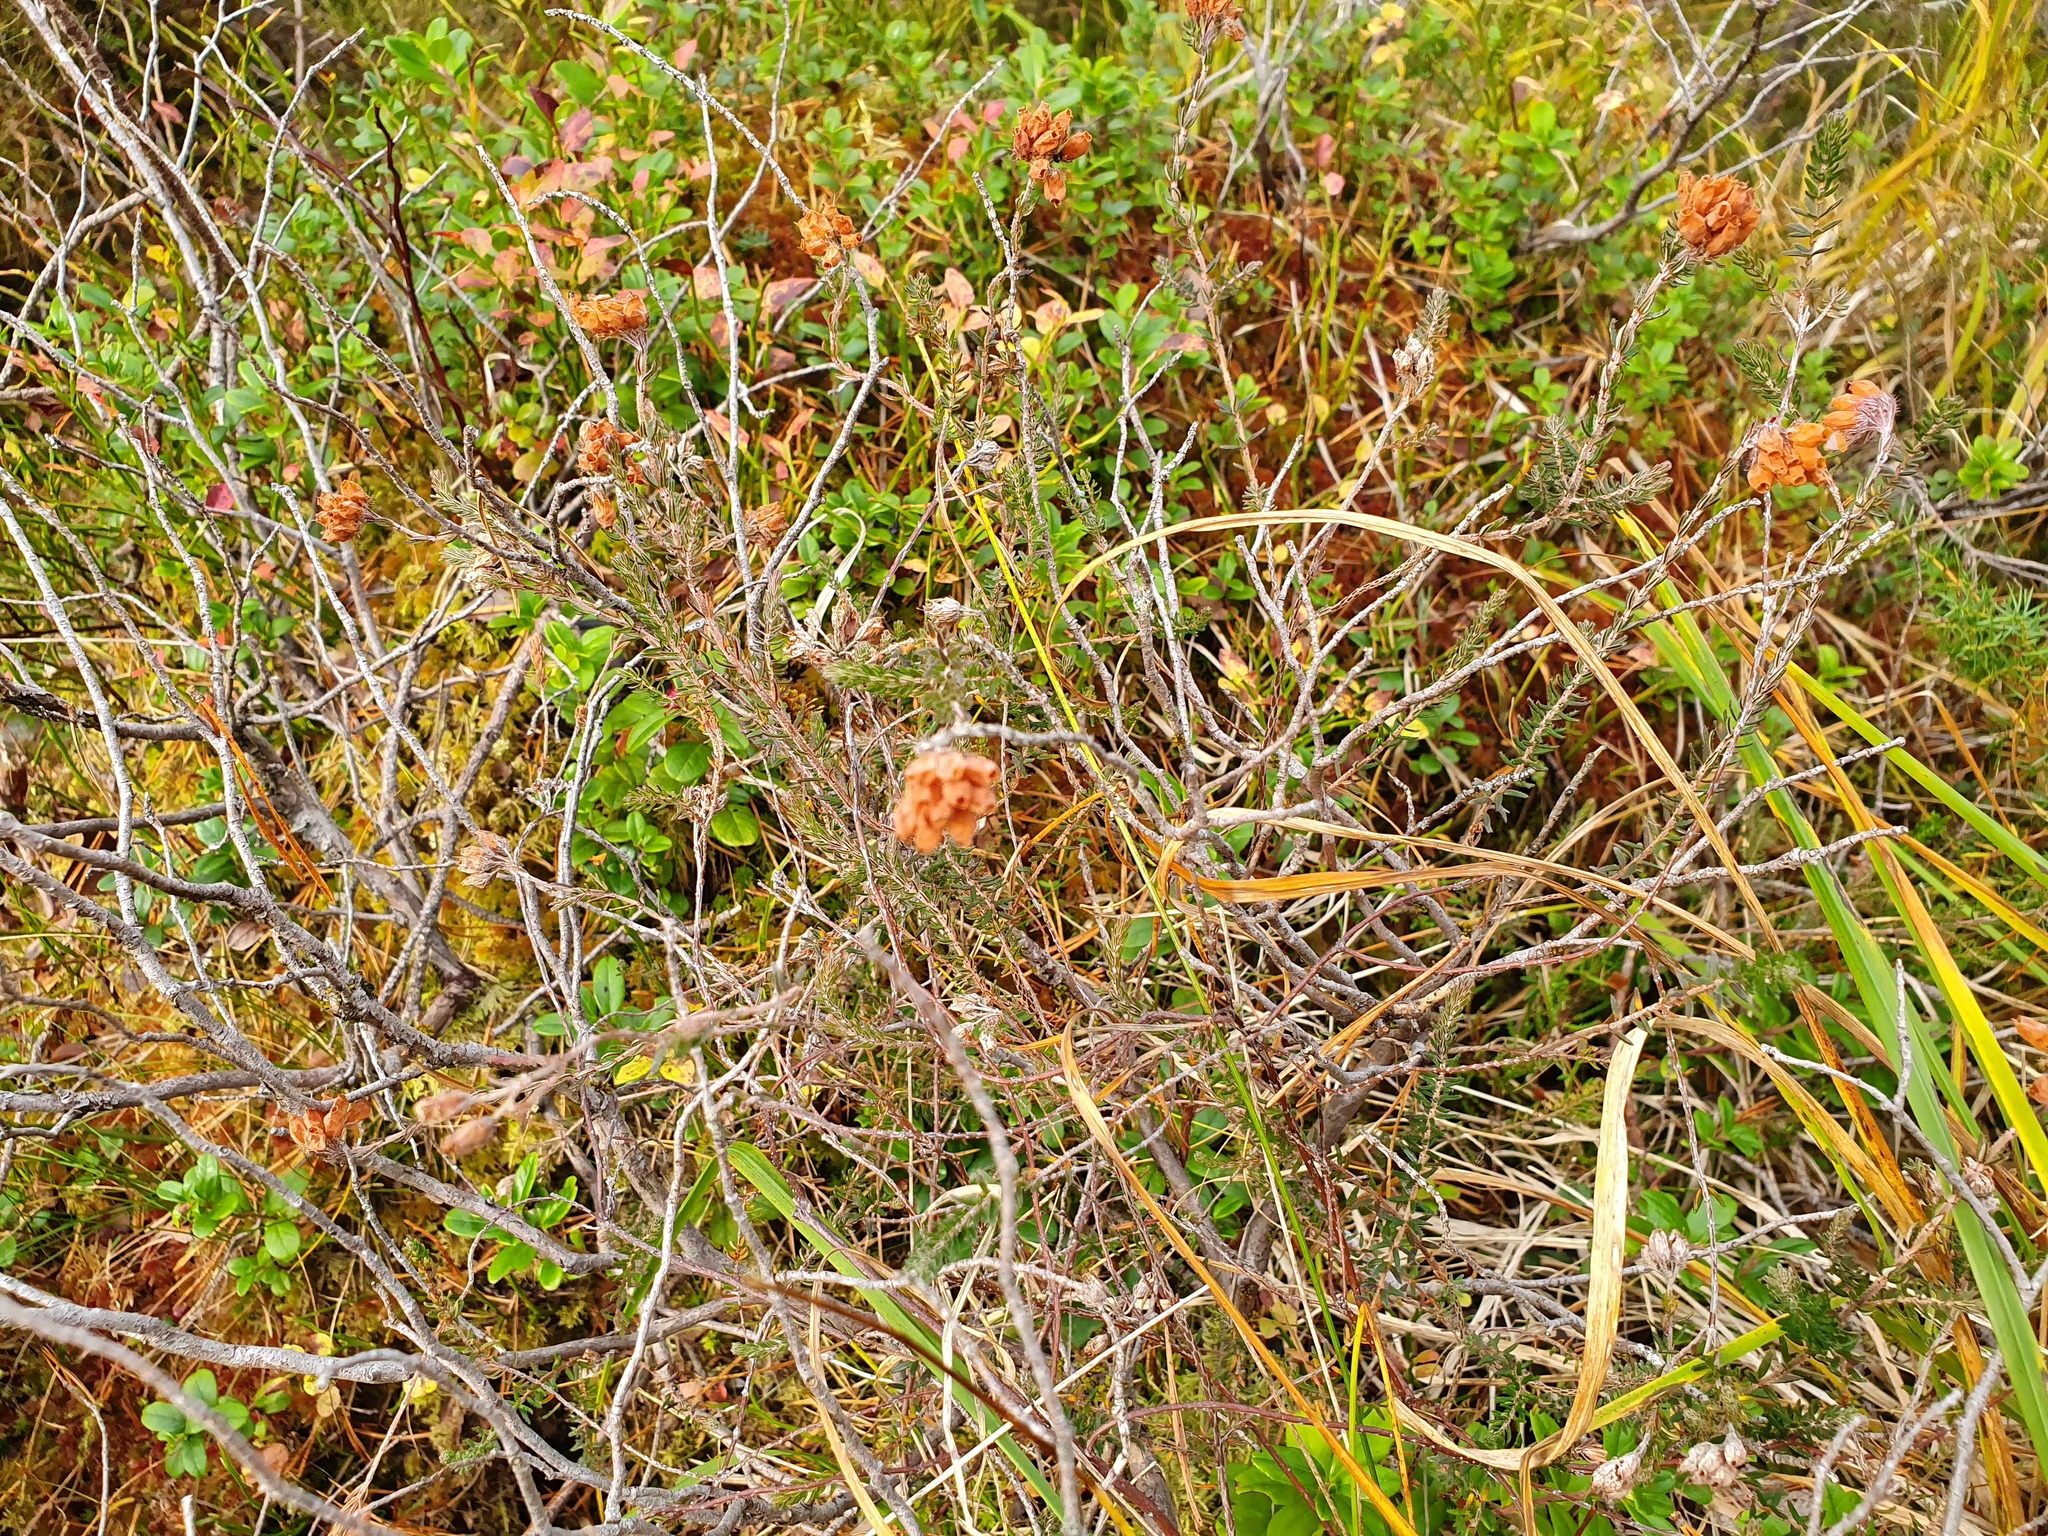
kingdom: Plantae
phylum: Tracheophyta
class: Magnoliopsida
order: Ericales
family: Ericaceae
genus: Erica
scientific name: Erica tetralix
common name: Cross-leaved heath
